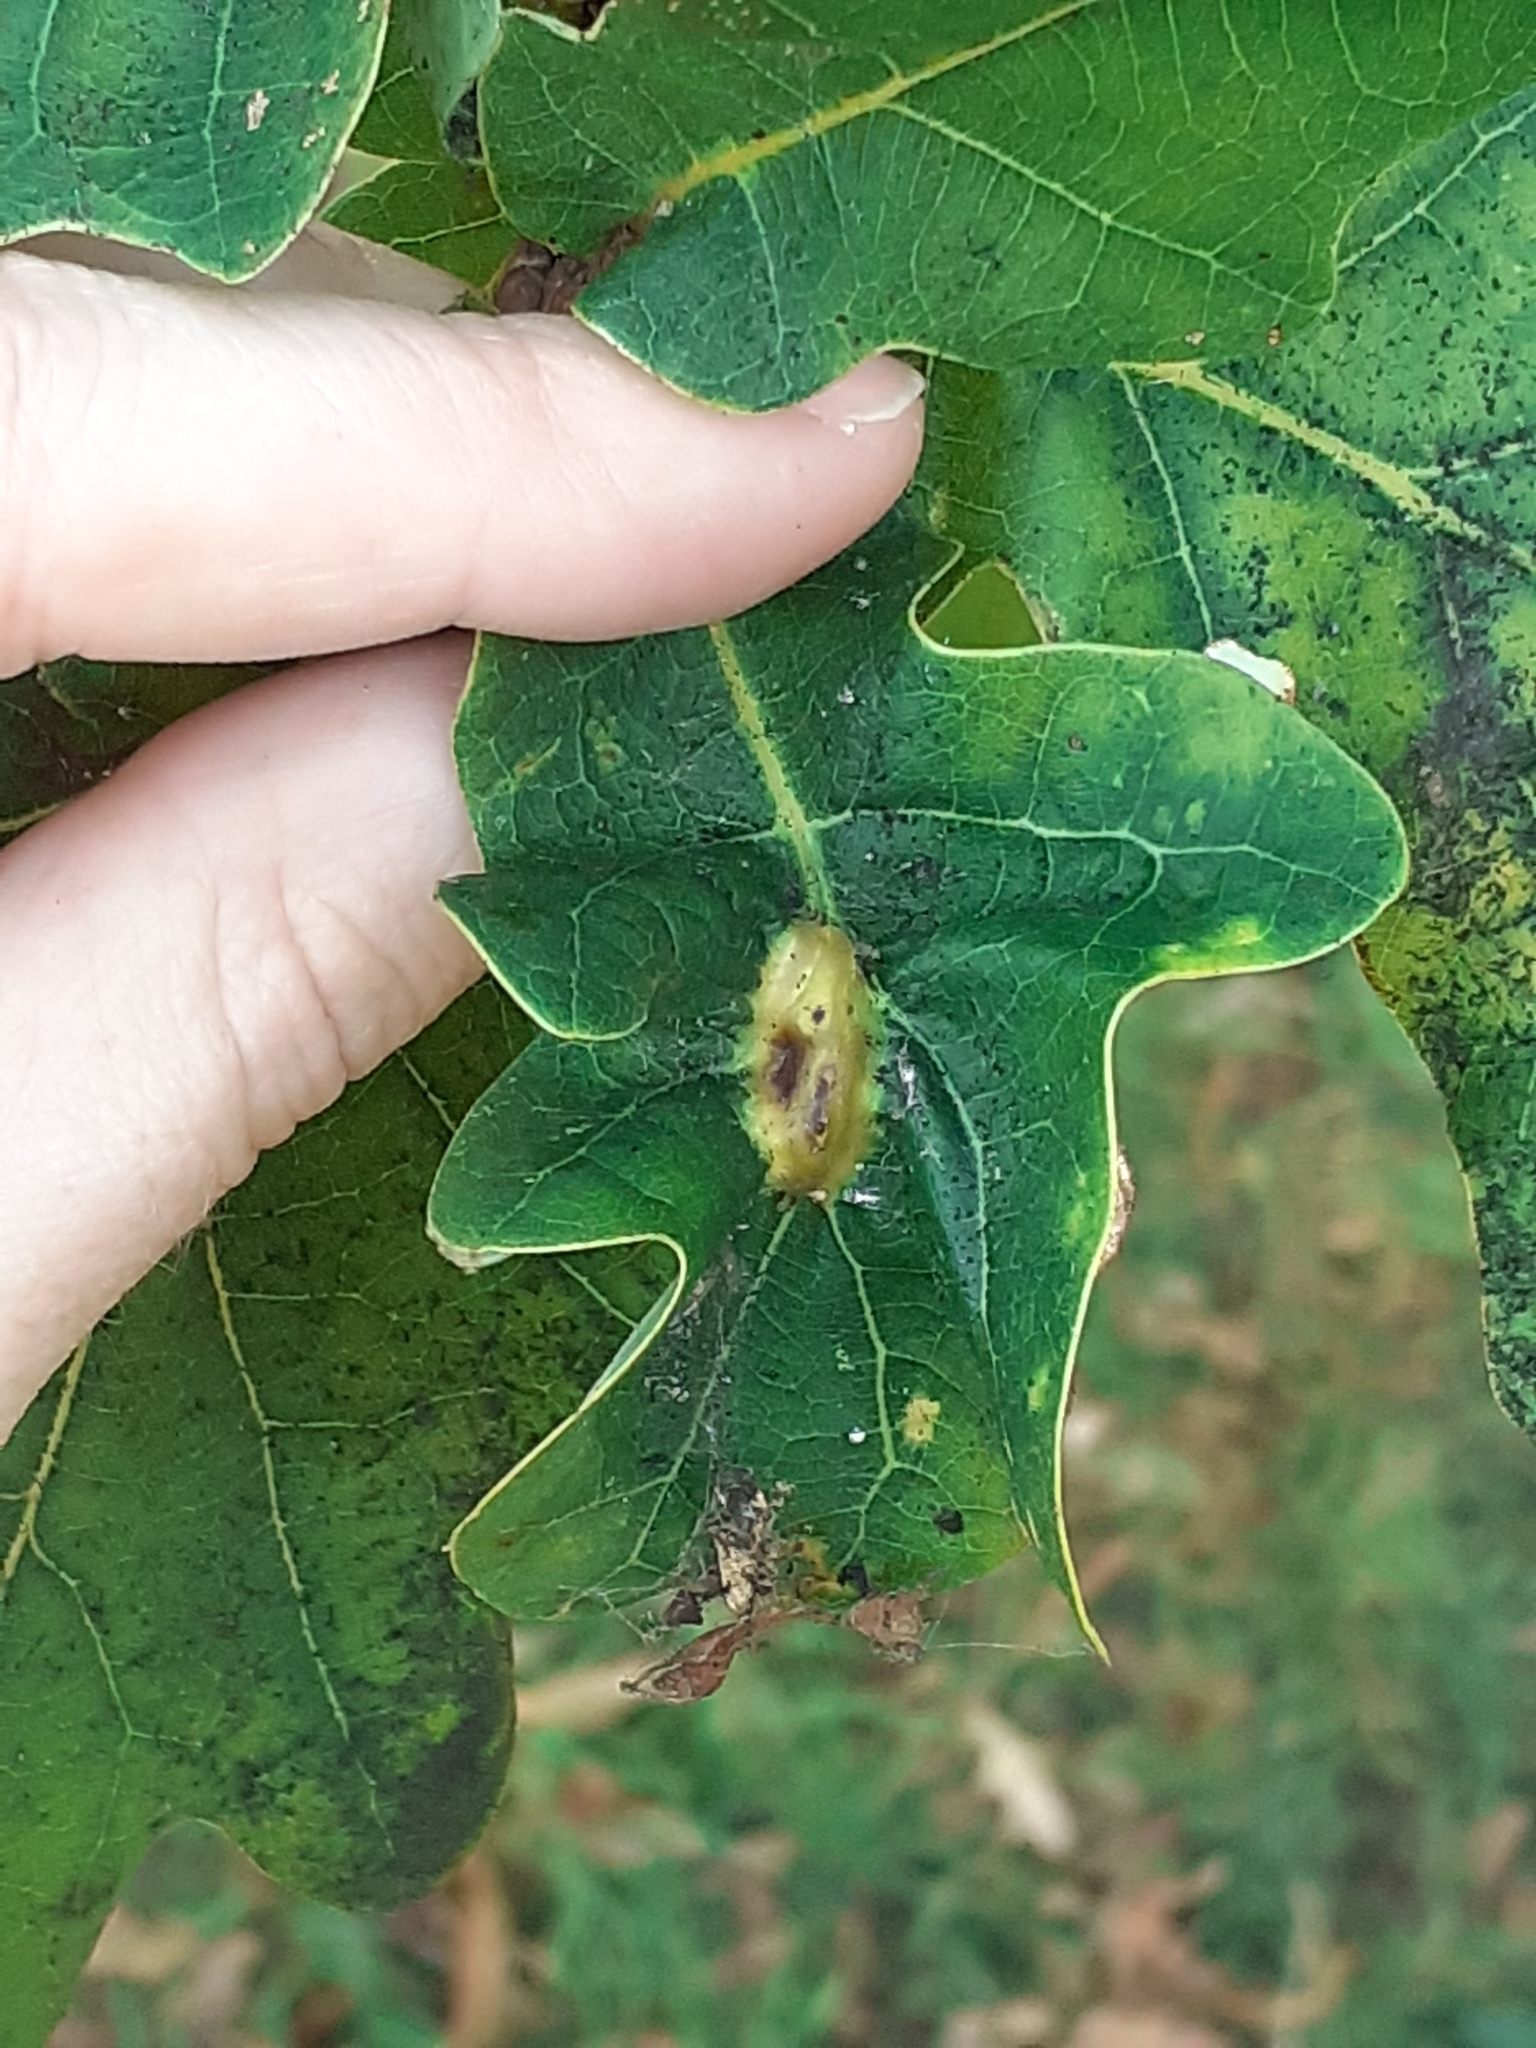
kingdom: Animalia
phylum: Arthropoda
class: Insecta
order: Hymenoptera
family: Cynipidae
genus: Andricus
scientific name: Andricus curvator
